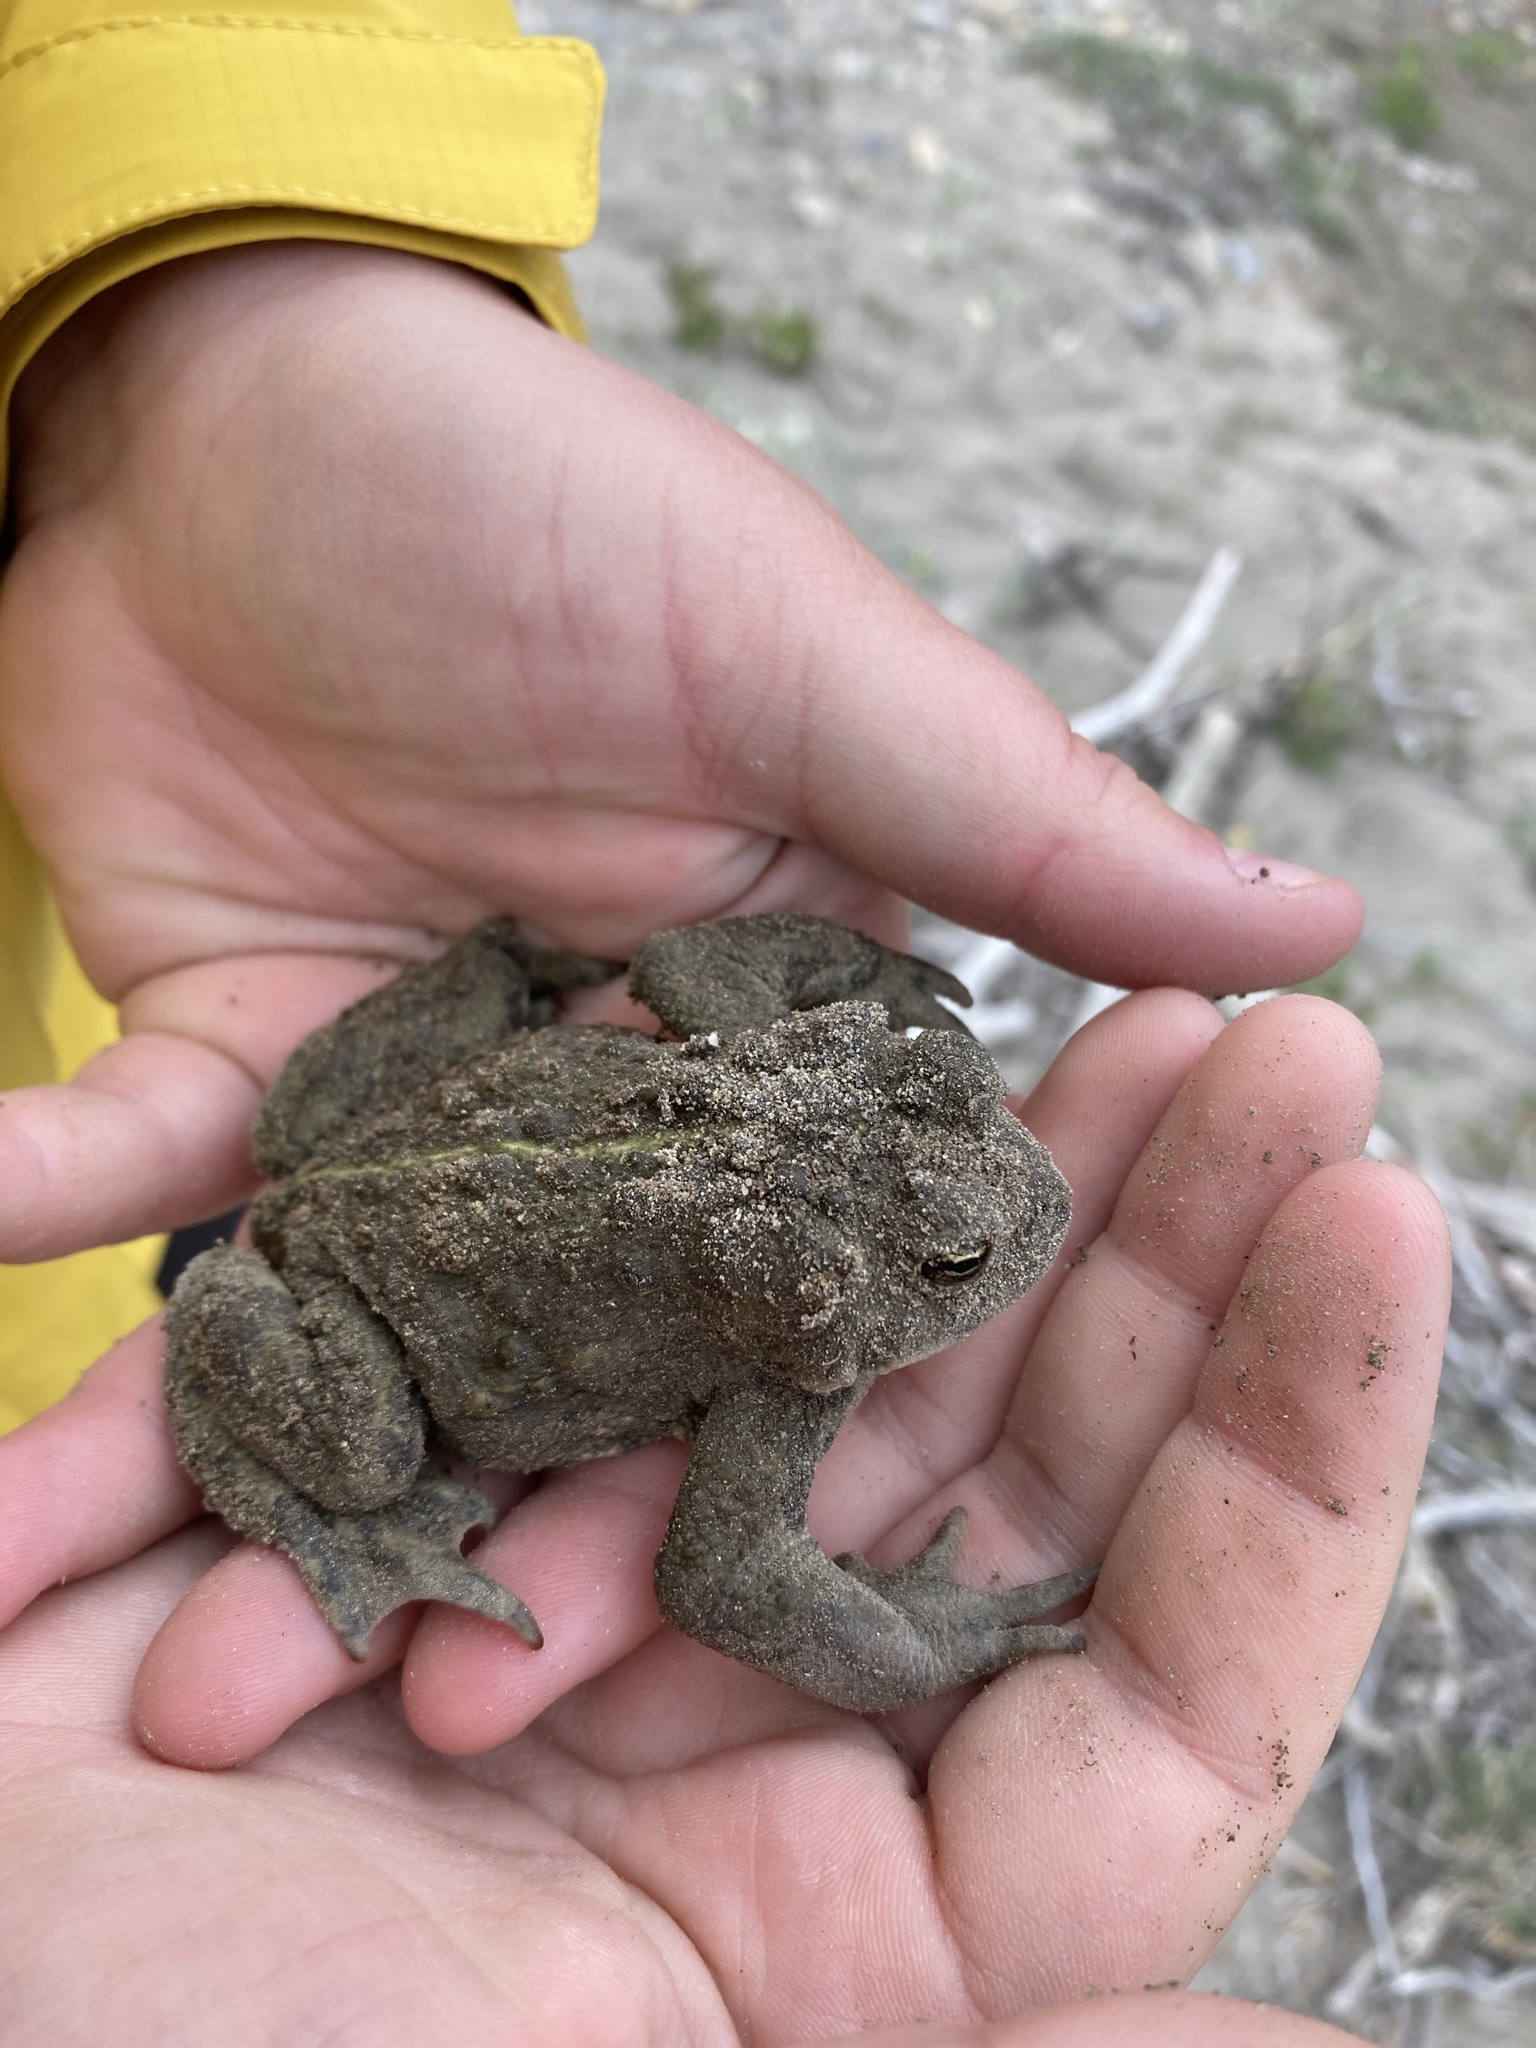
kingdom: Animalia
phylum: Chordata
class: Amphibia
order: Anura
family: Bufonidae
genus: Anaxyrus
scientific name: Anaxyrus boreas
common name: Western toad
